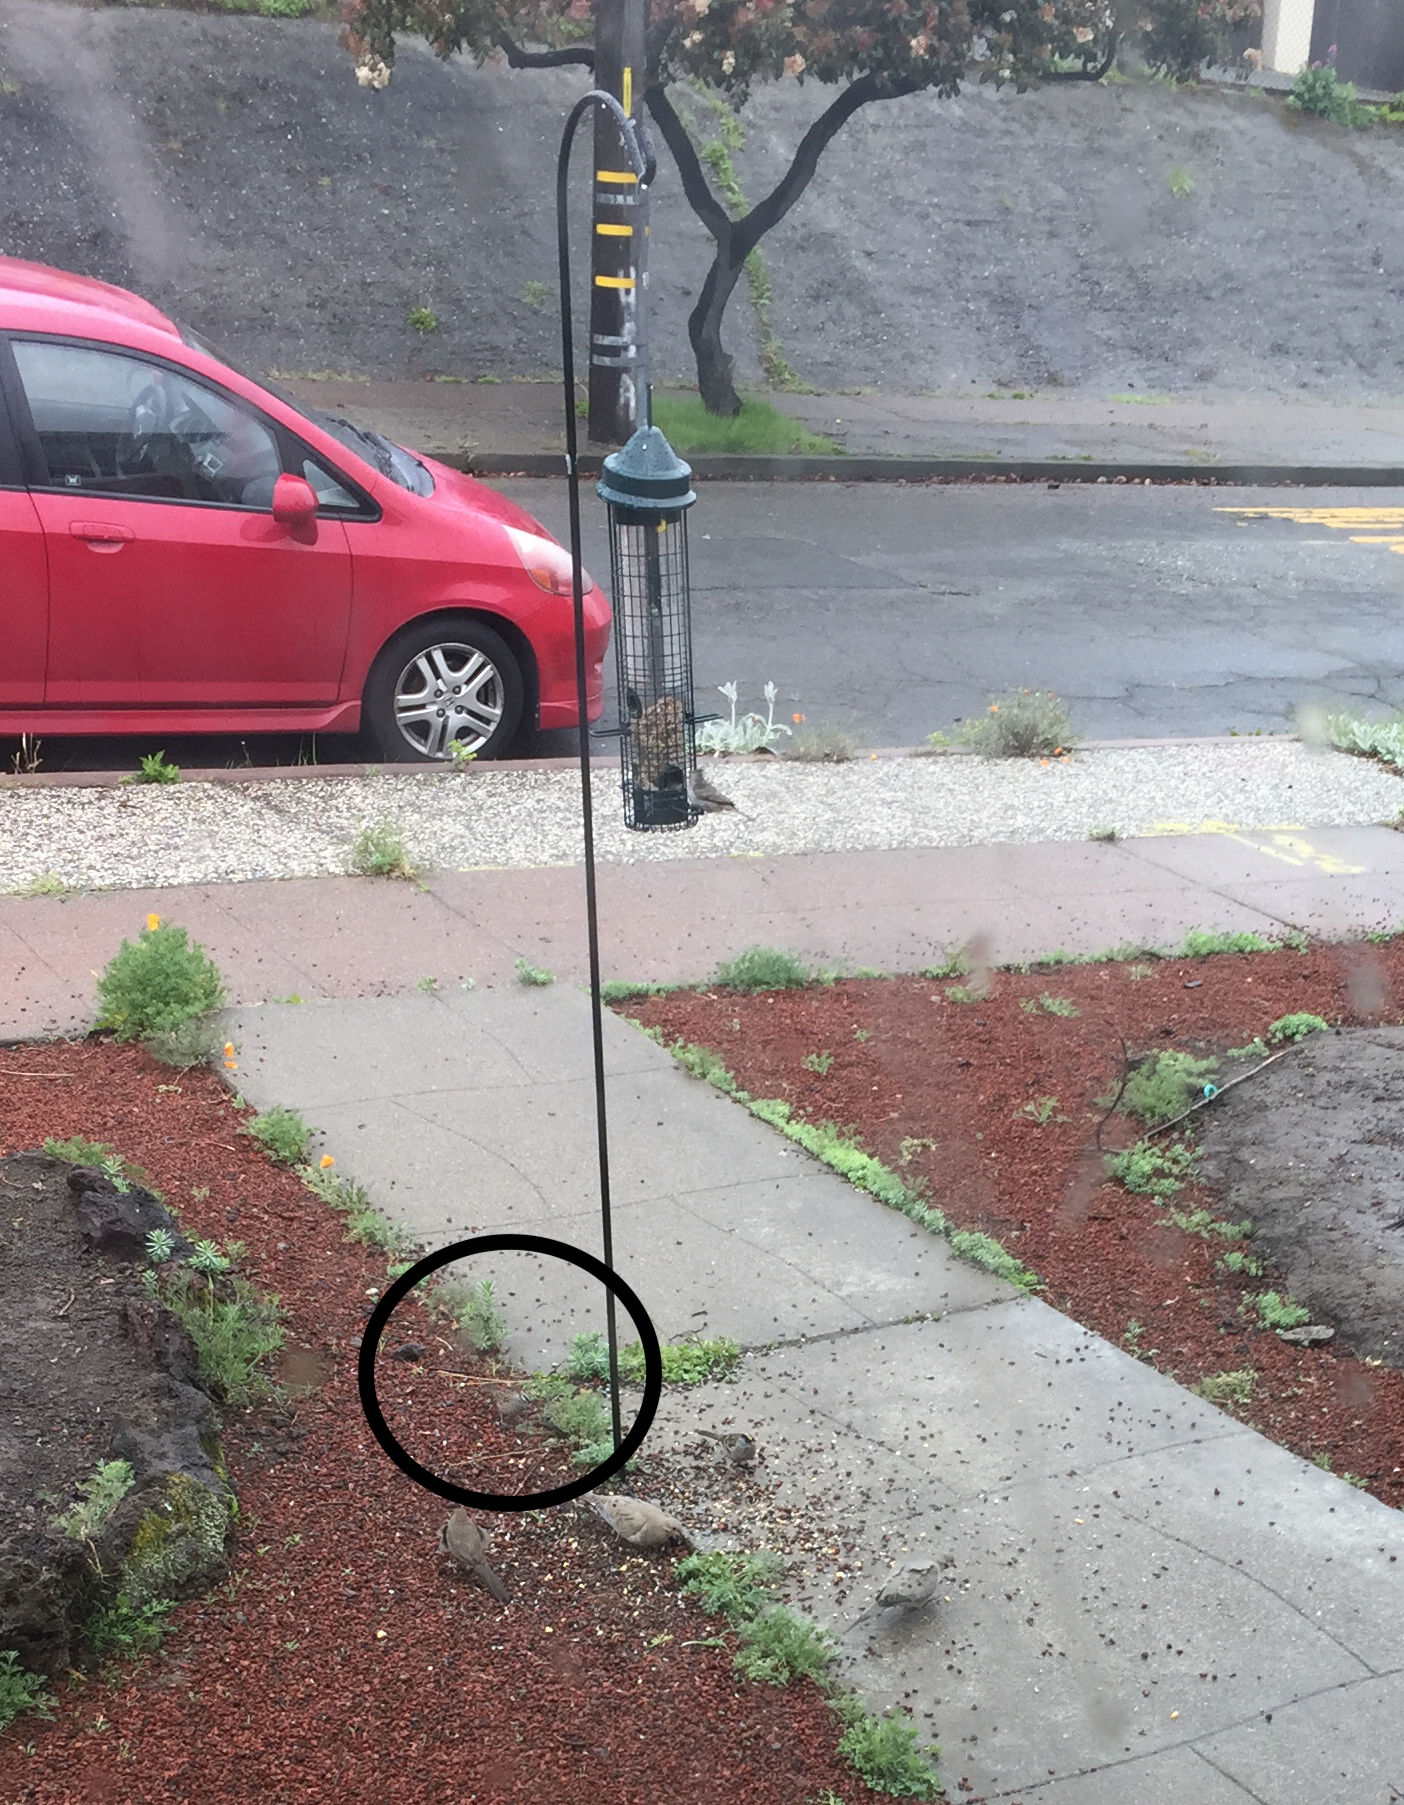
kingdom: Animalia
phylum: Chordata
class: Aves
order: Passeriformes
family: Passerellidae
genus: Zonotrichia
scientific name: Zonotrichia leucophrys
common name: White-crowned sparrow
